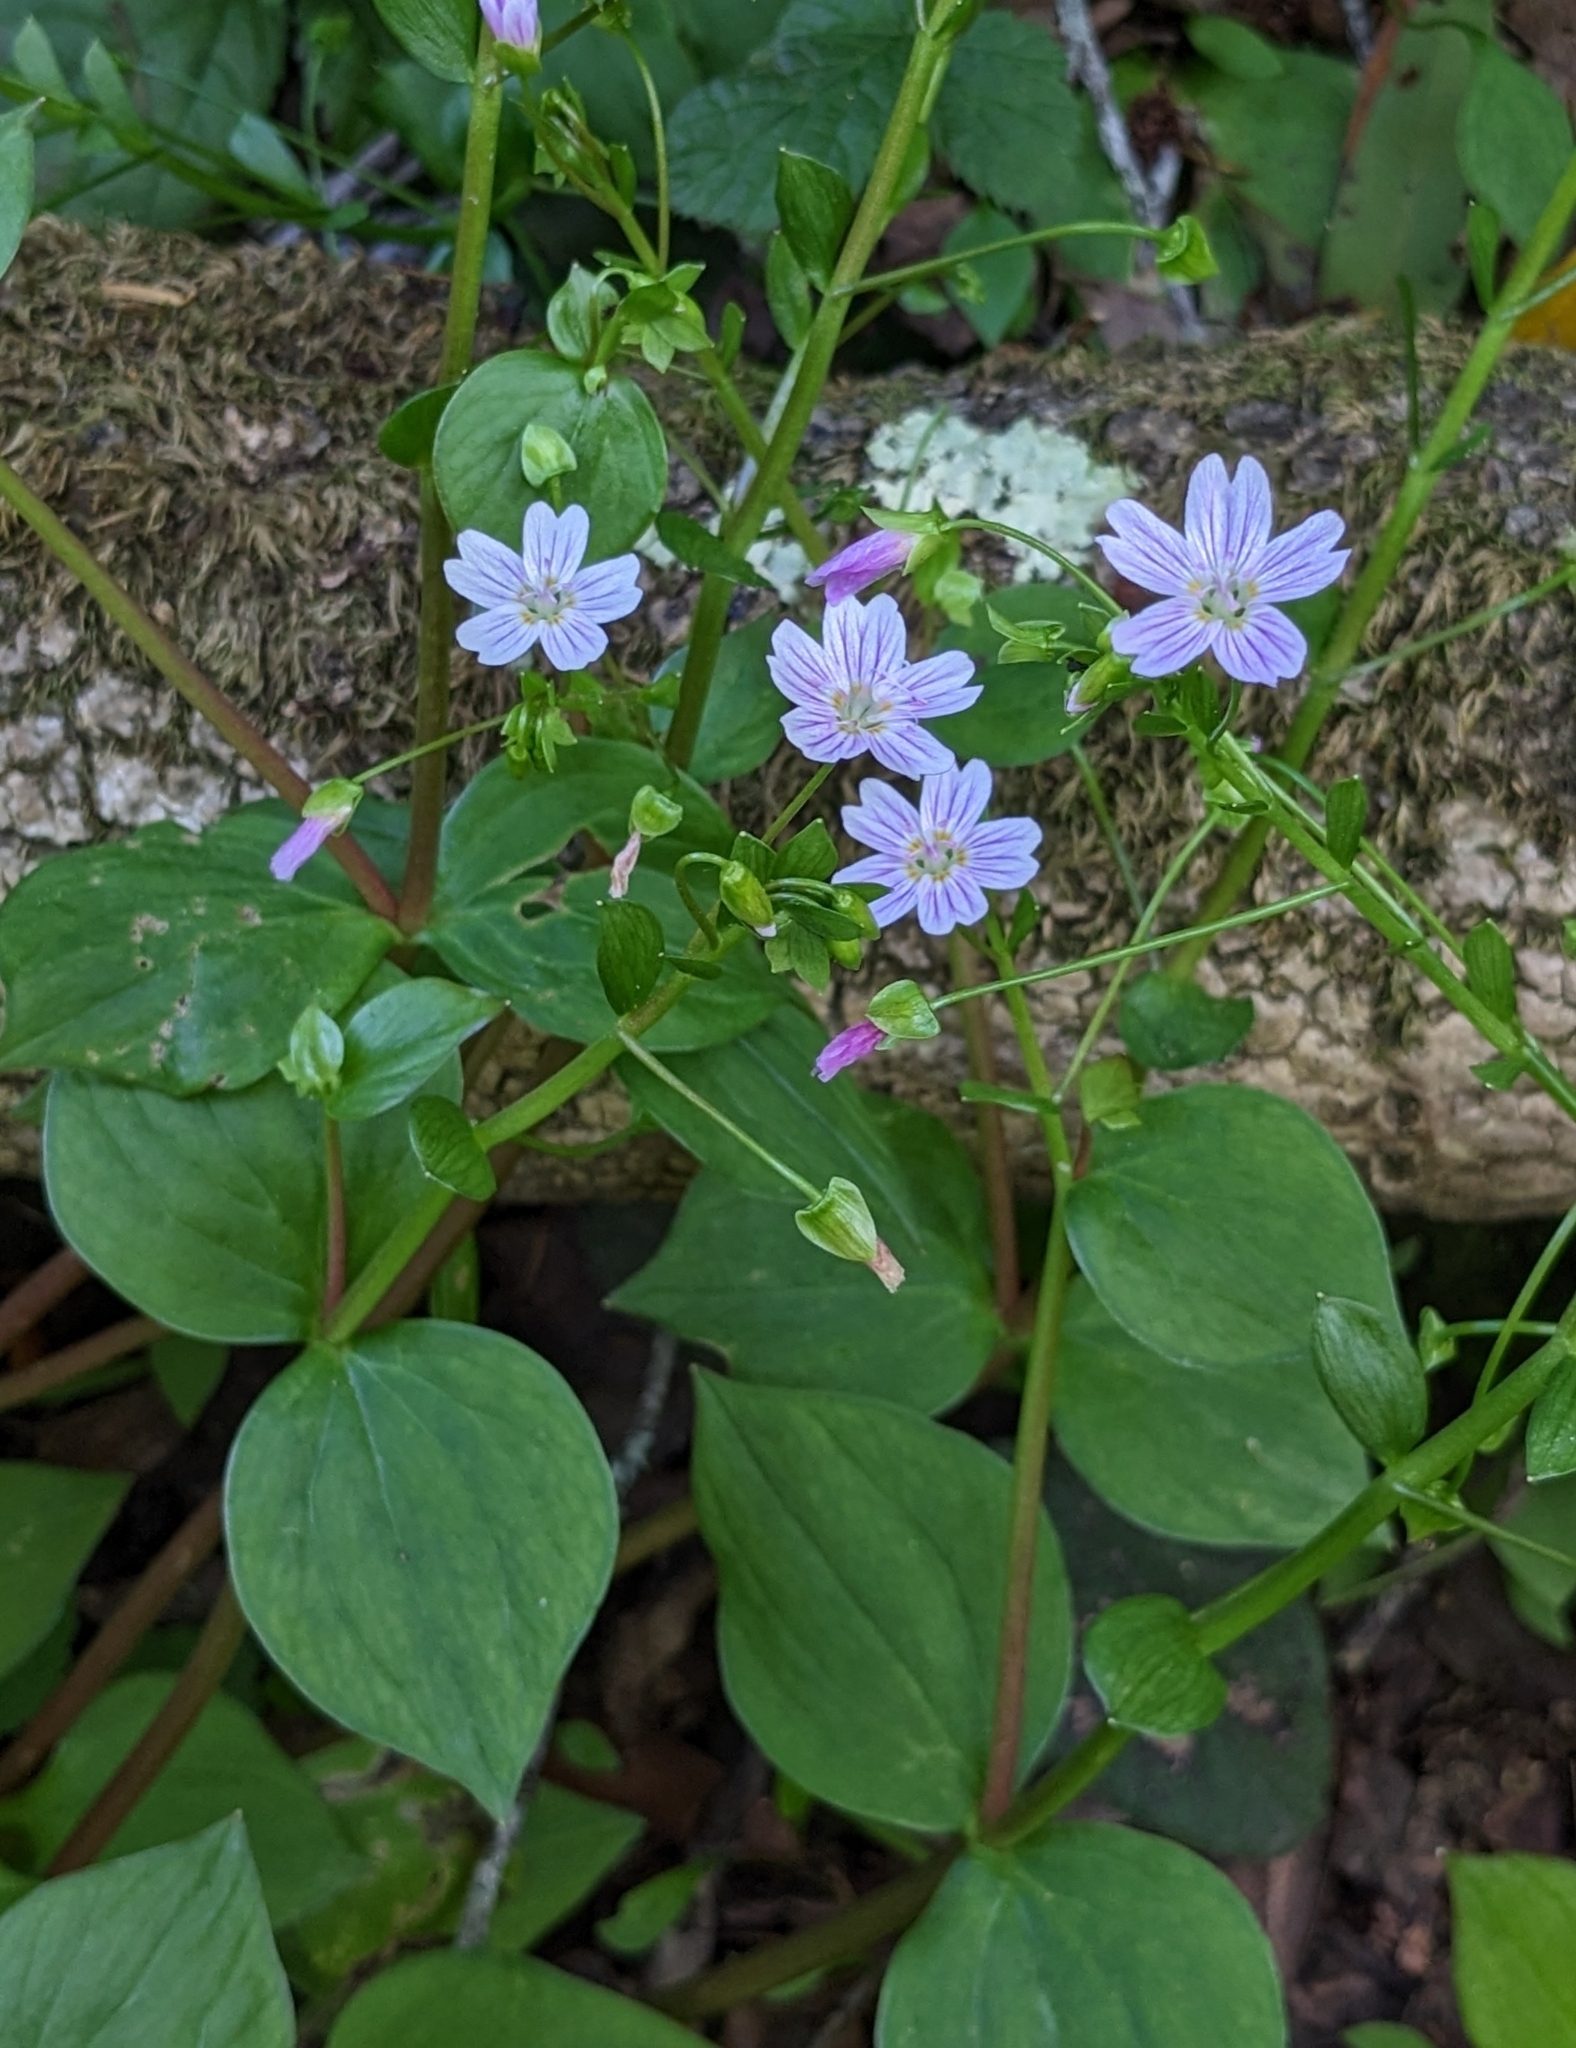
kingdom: Plantae
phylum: Tracheophyta
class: Magnoliopsida
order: Caryophyllales
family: Montiaceae
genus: Claytonia
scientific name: Claytonia sibirica
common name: Pink purslane
